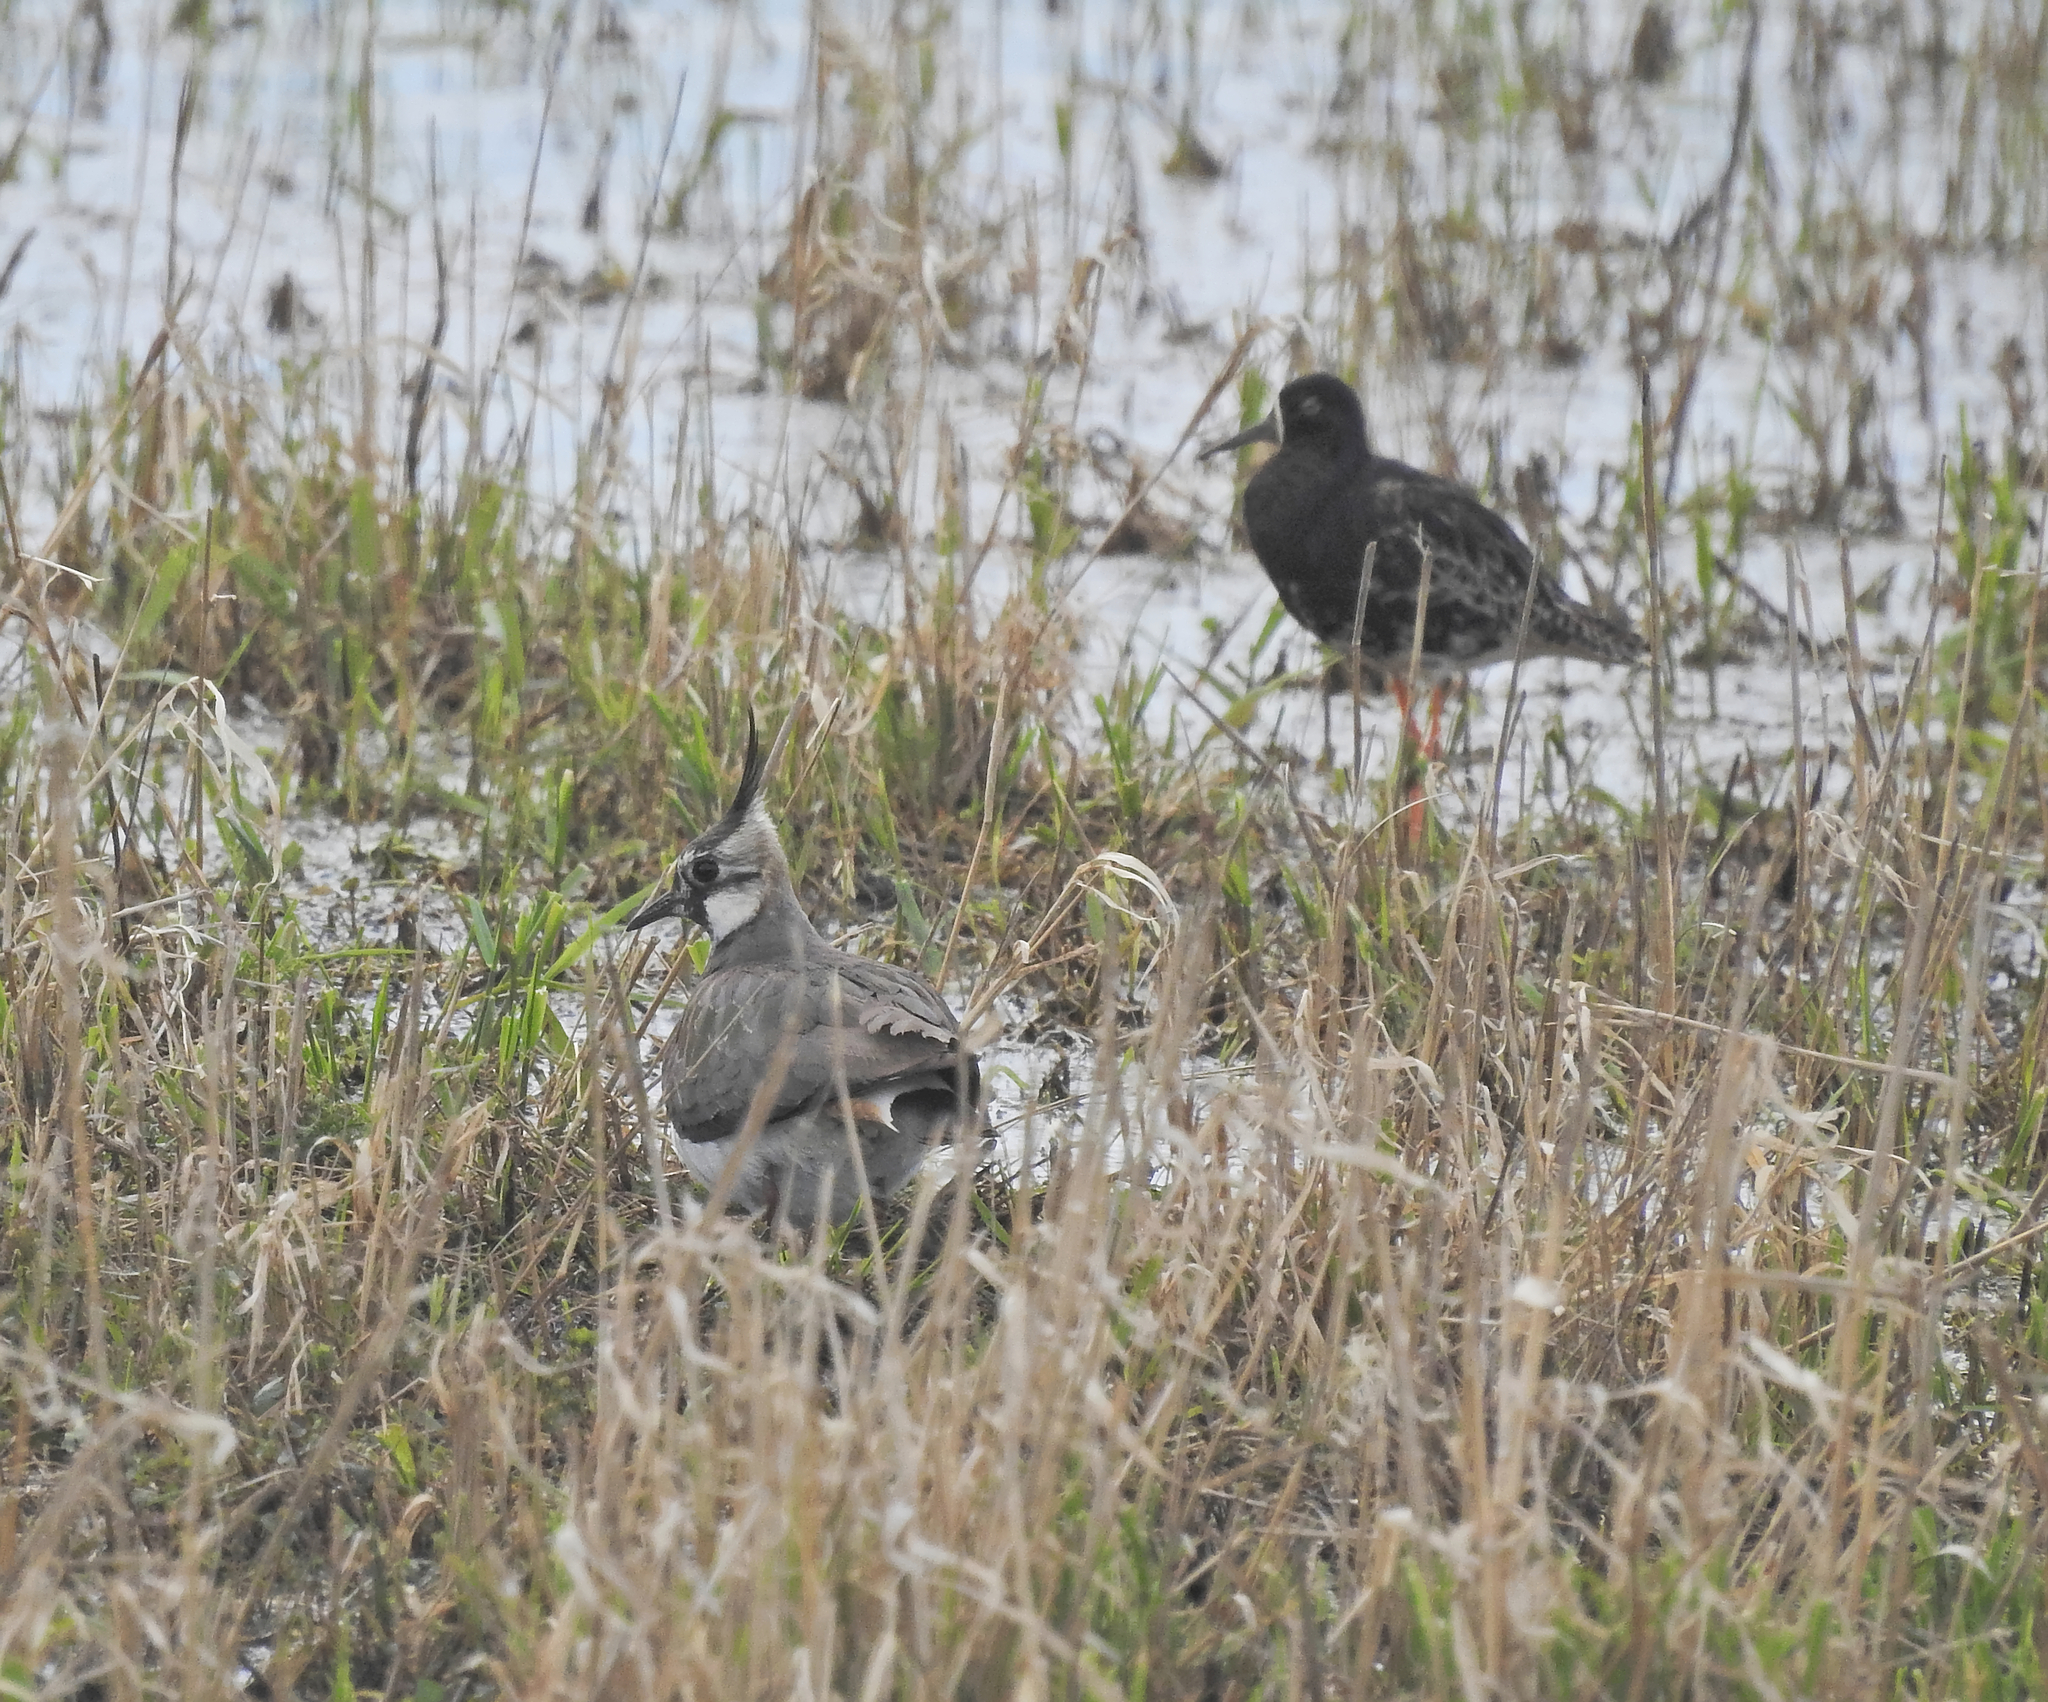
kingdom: Animalia
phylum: Chordata
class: Aves
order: Charadriiformes
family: Charadriidae
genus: Vanellus
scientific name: Vanellus vanellus
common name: Northern lapwing
